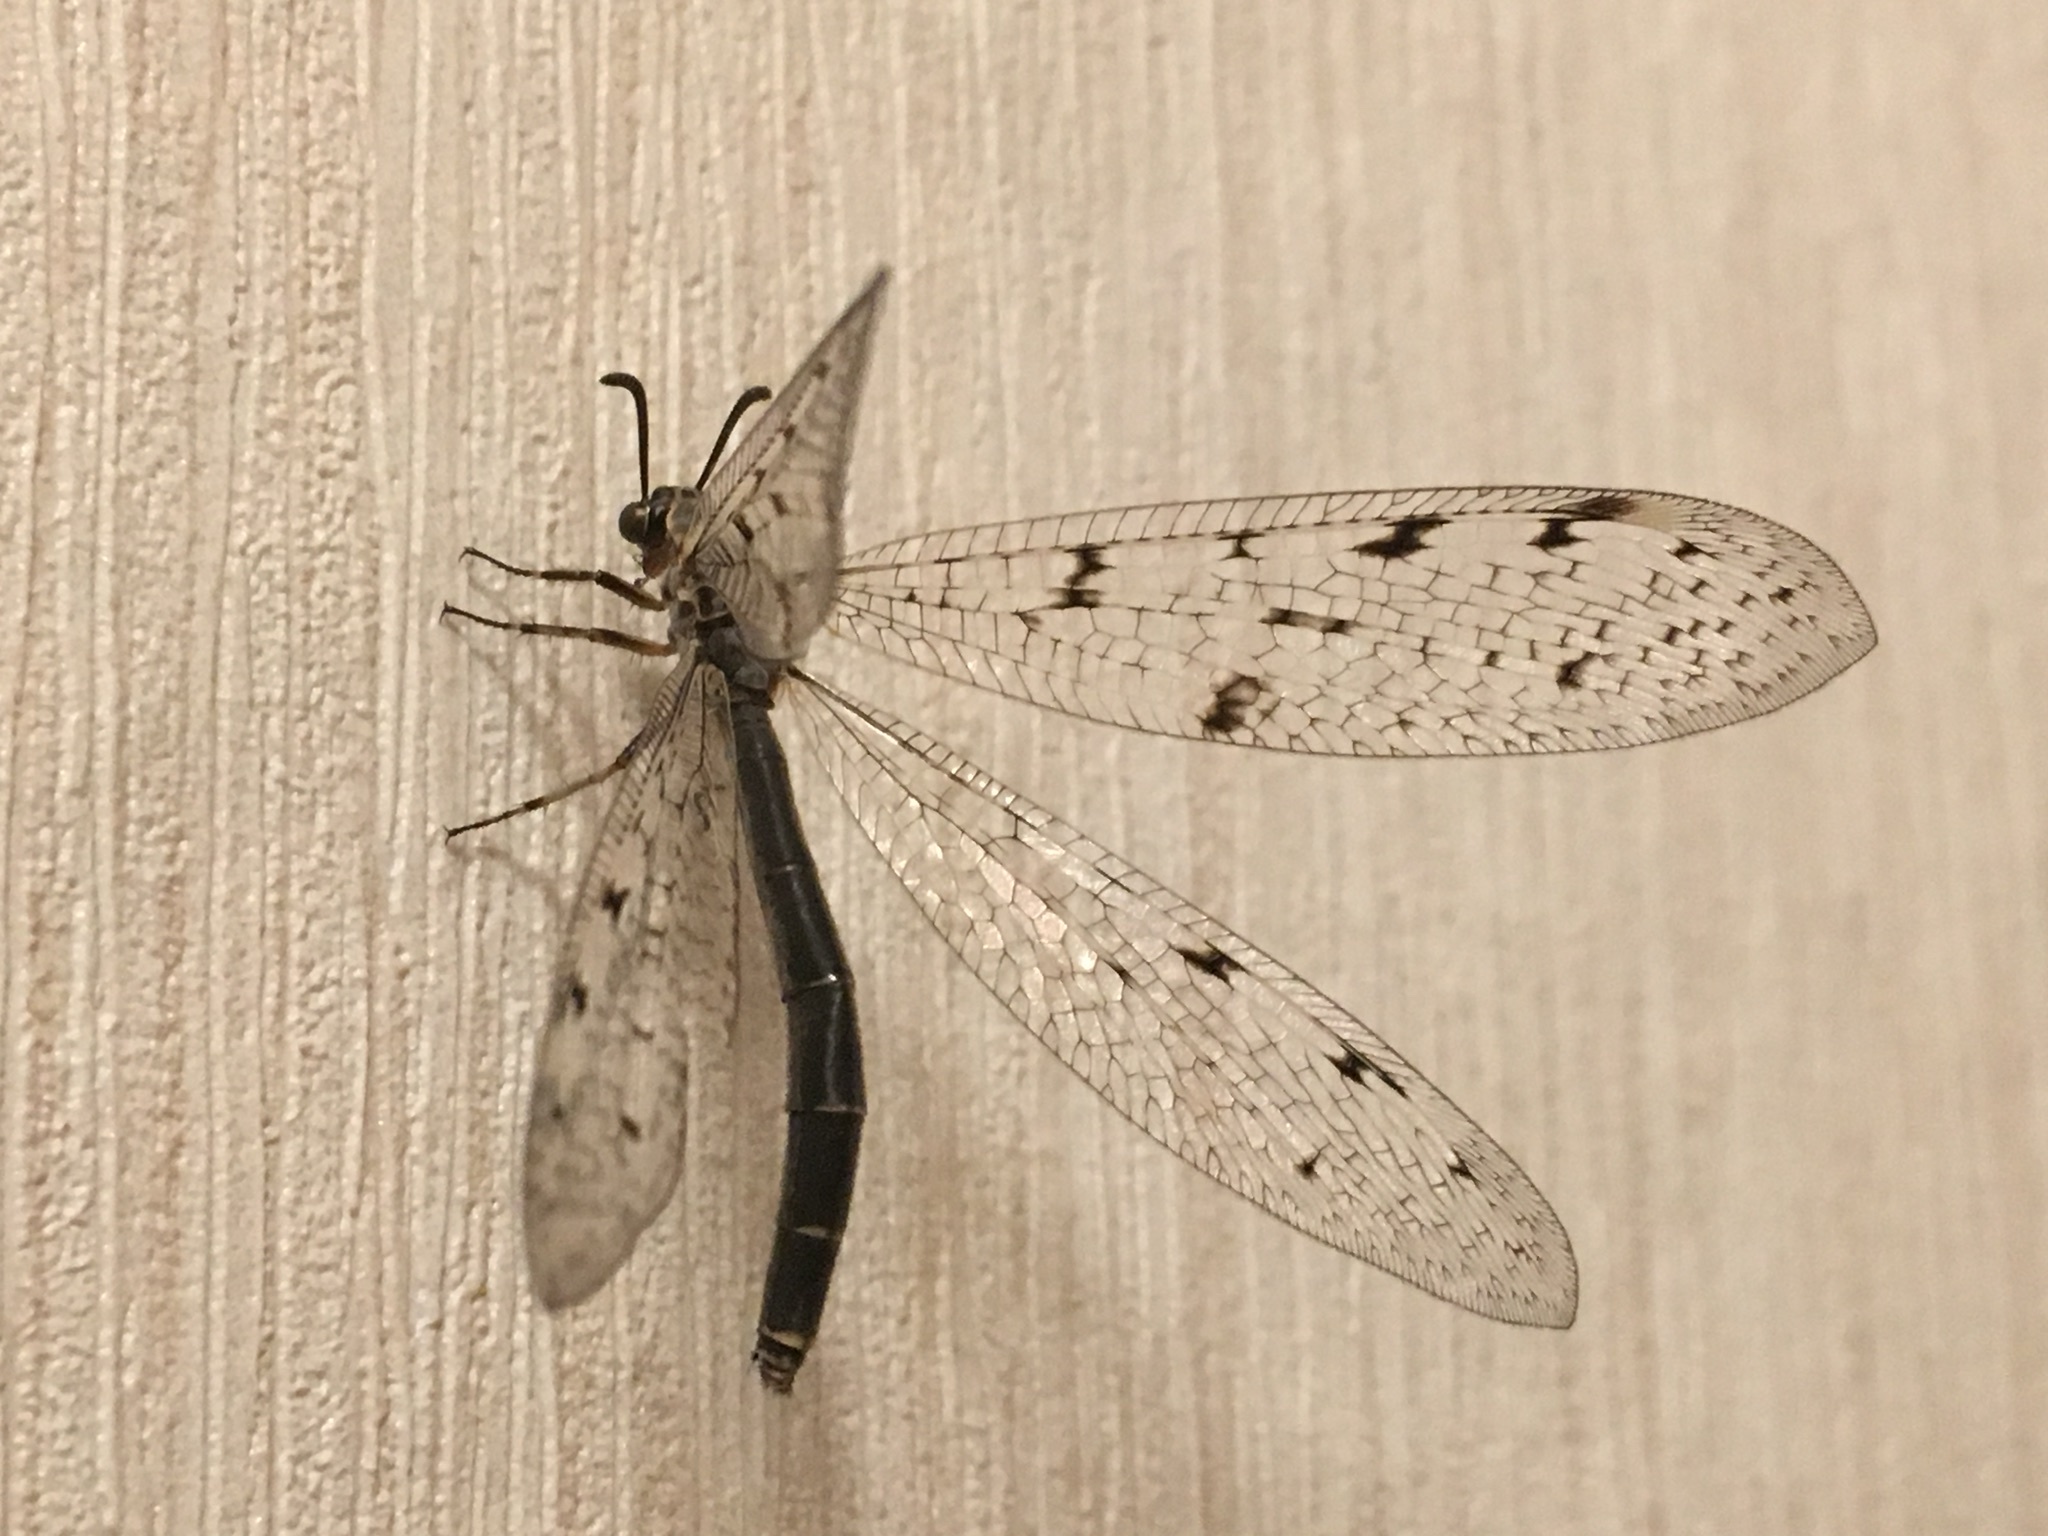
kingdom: Animalia
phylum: Arthropoda
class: Insecta
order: Neuroptera
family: Myrmeleontidae
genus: Euroleon
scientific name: Euroleon nostras
